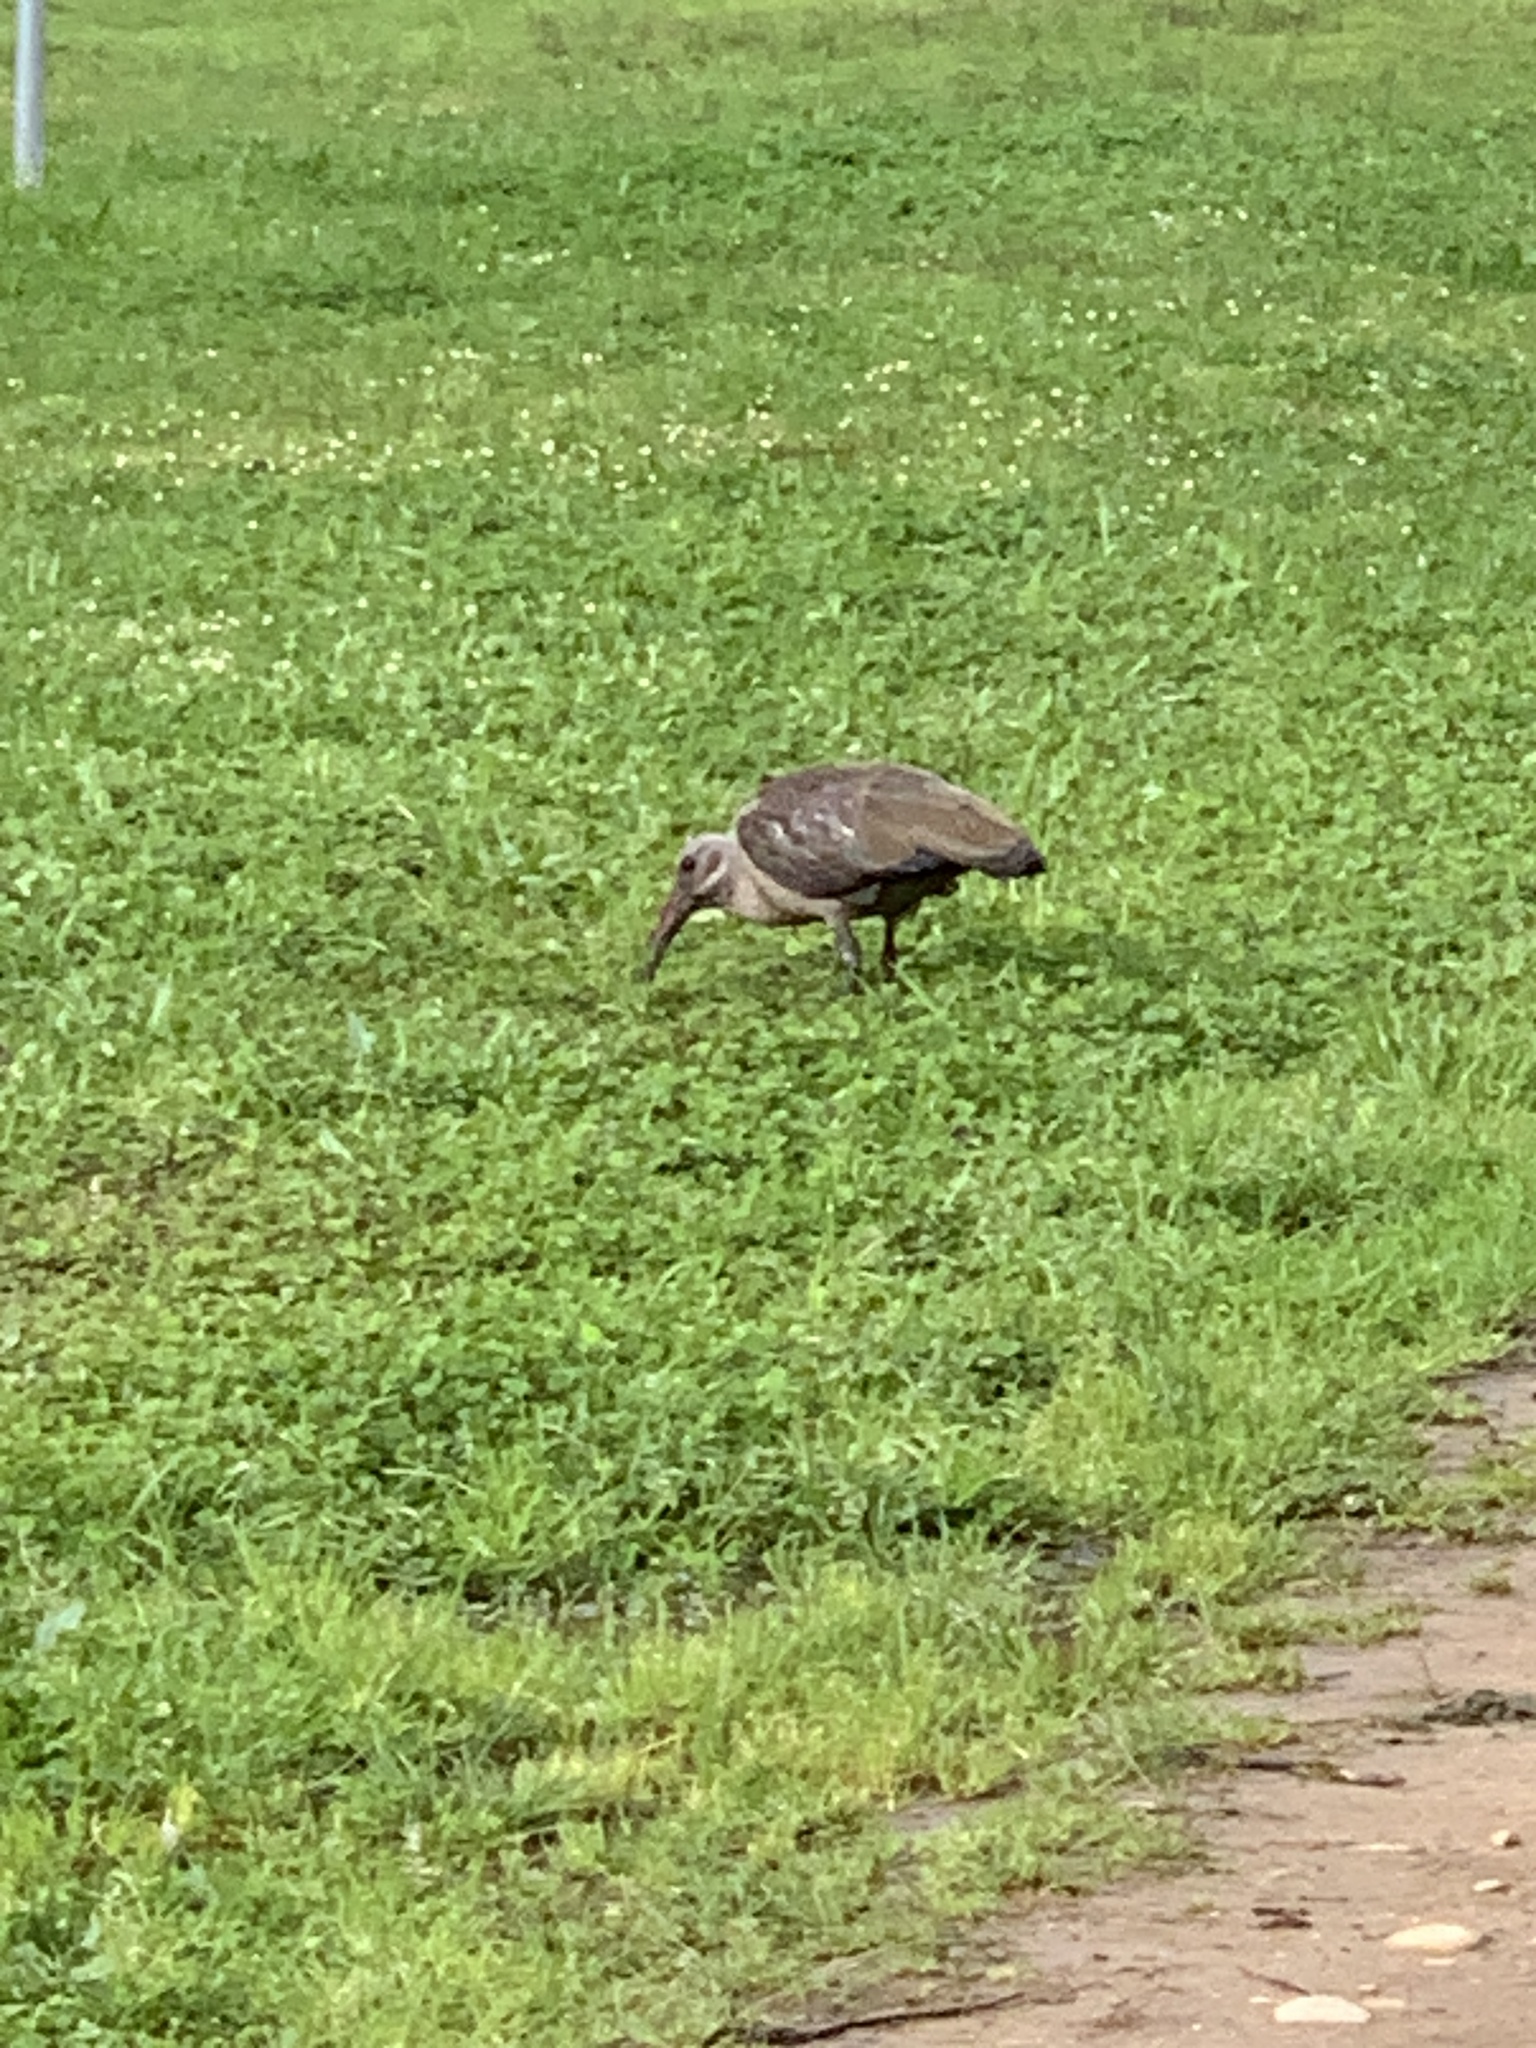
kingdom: Animalia
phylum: Chordata
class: Aves
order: Pelecaniformes
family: Threskiornithidae
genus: Bostrychia
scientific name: Bostrychia hagedash
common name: Hadada ibis
